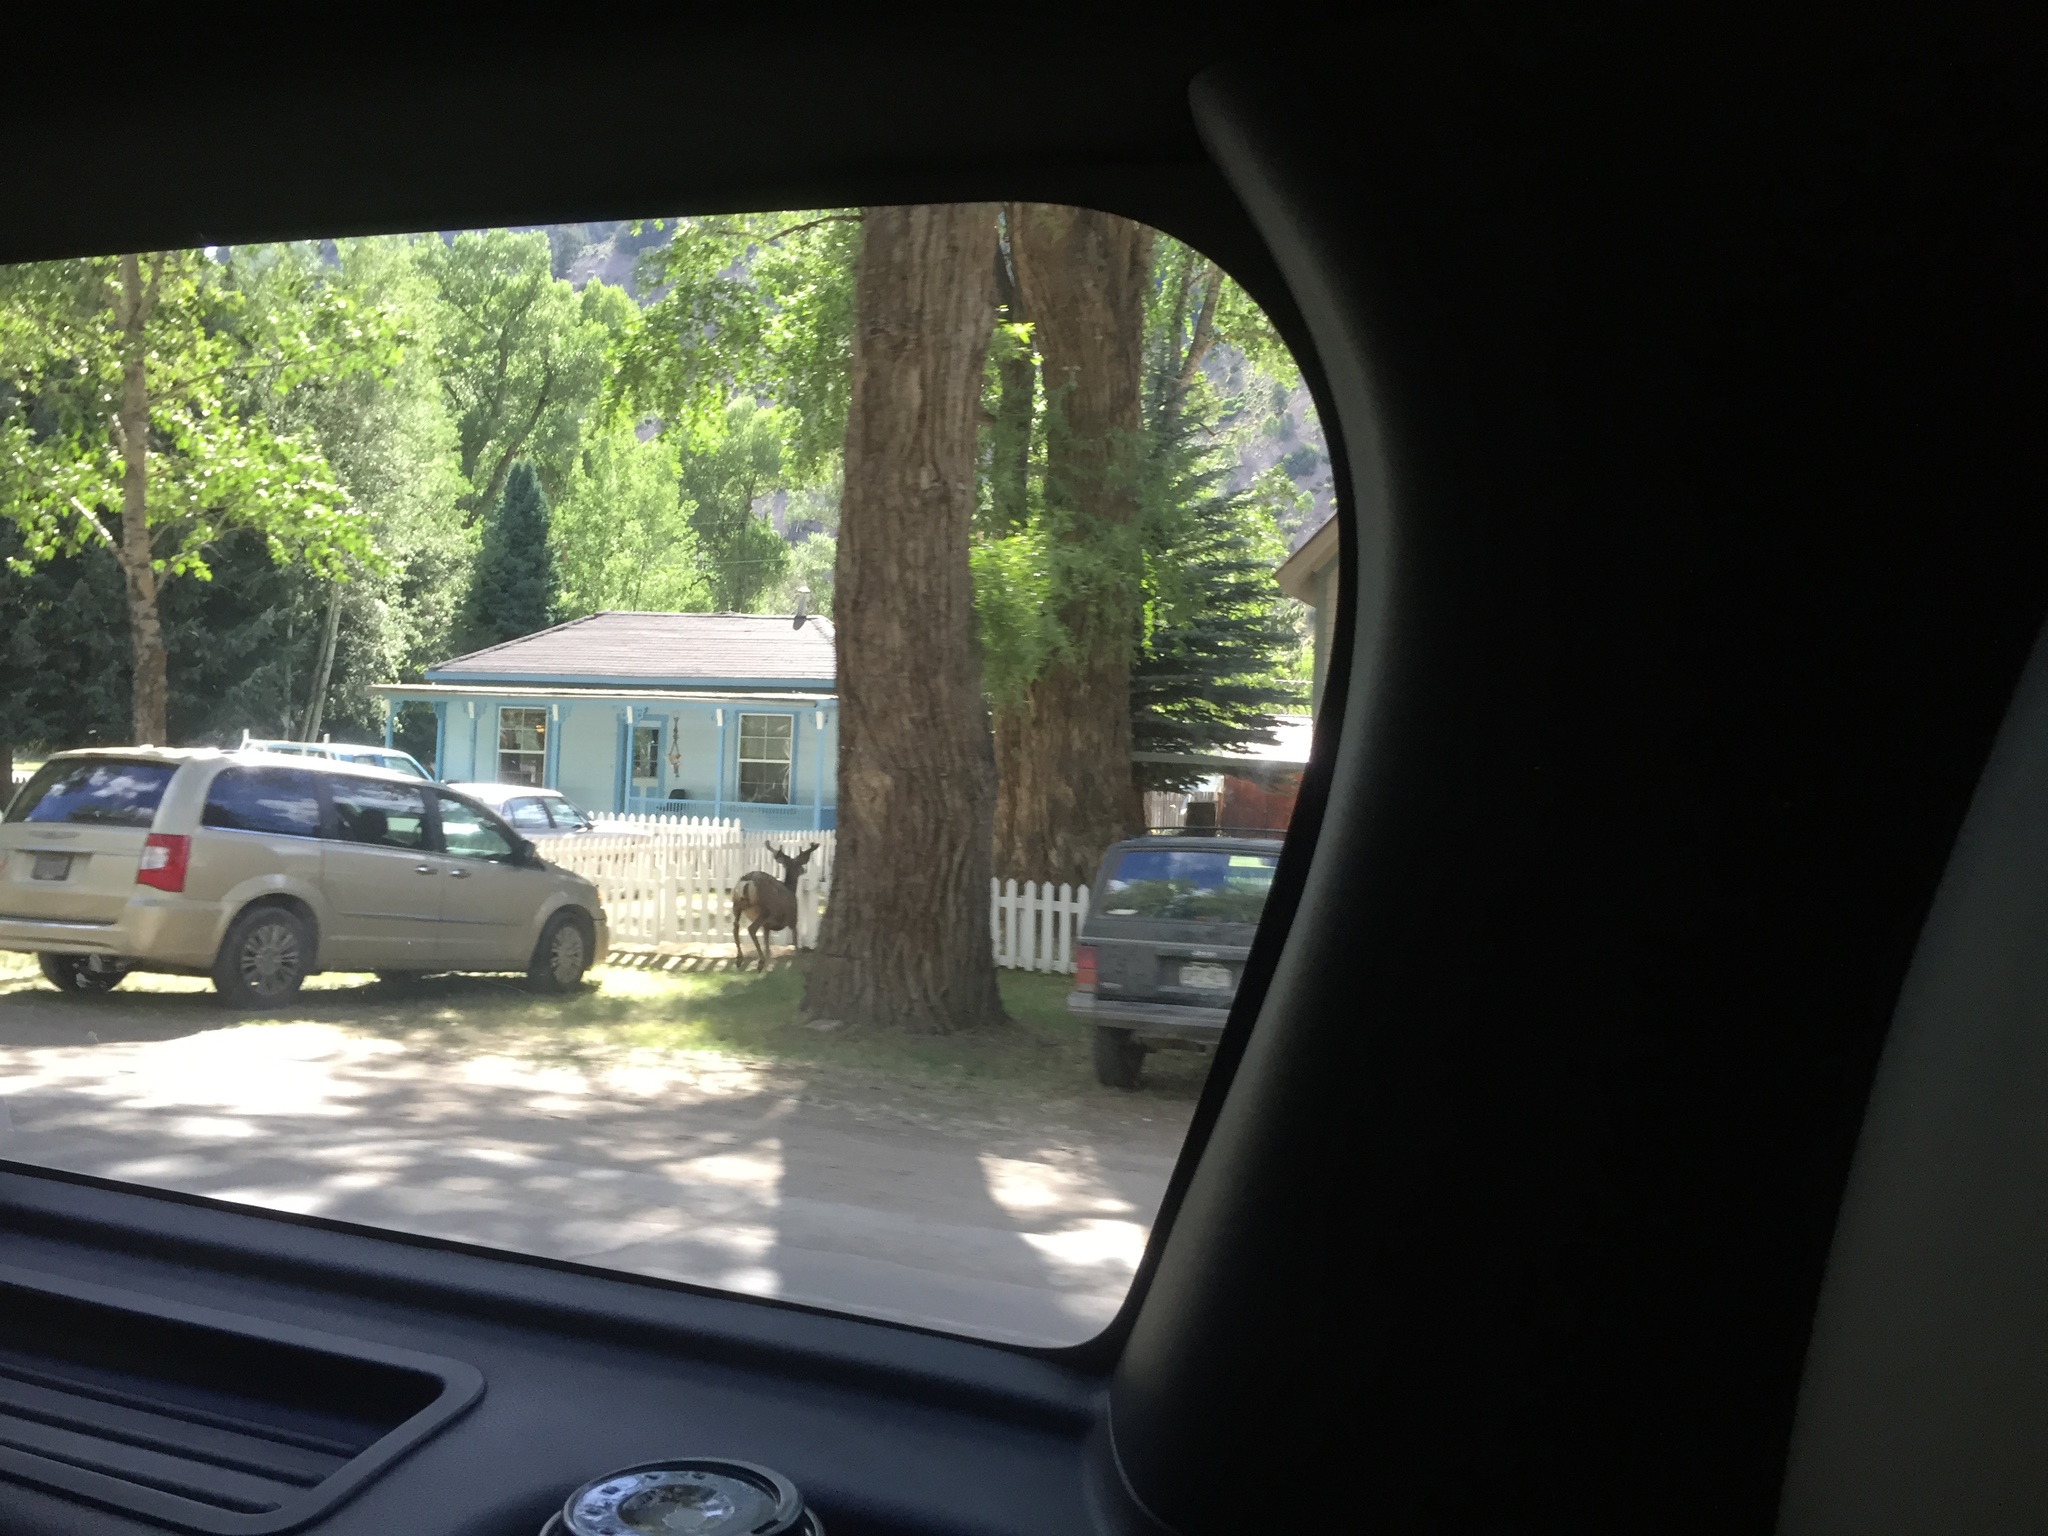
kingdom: Animalia
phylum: Chordata
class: Mammalia
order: Artiodactyla
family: Cervidae
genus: Odocoileus
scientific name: Odocoileus hemionus
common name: Mule deer
